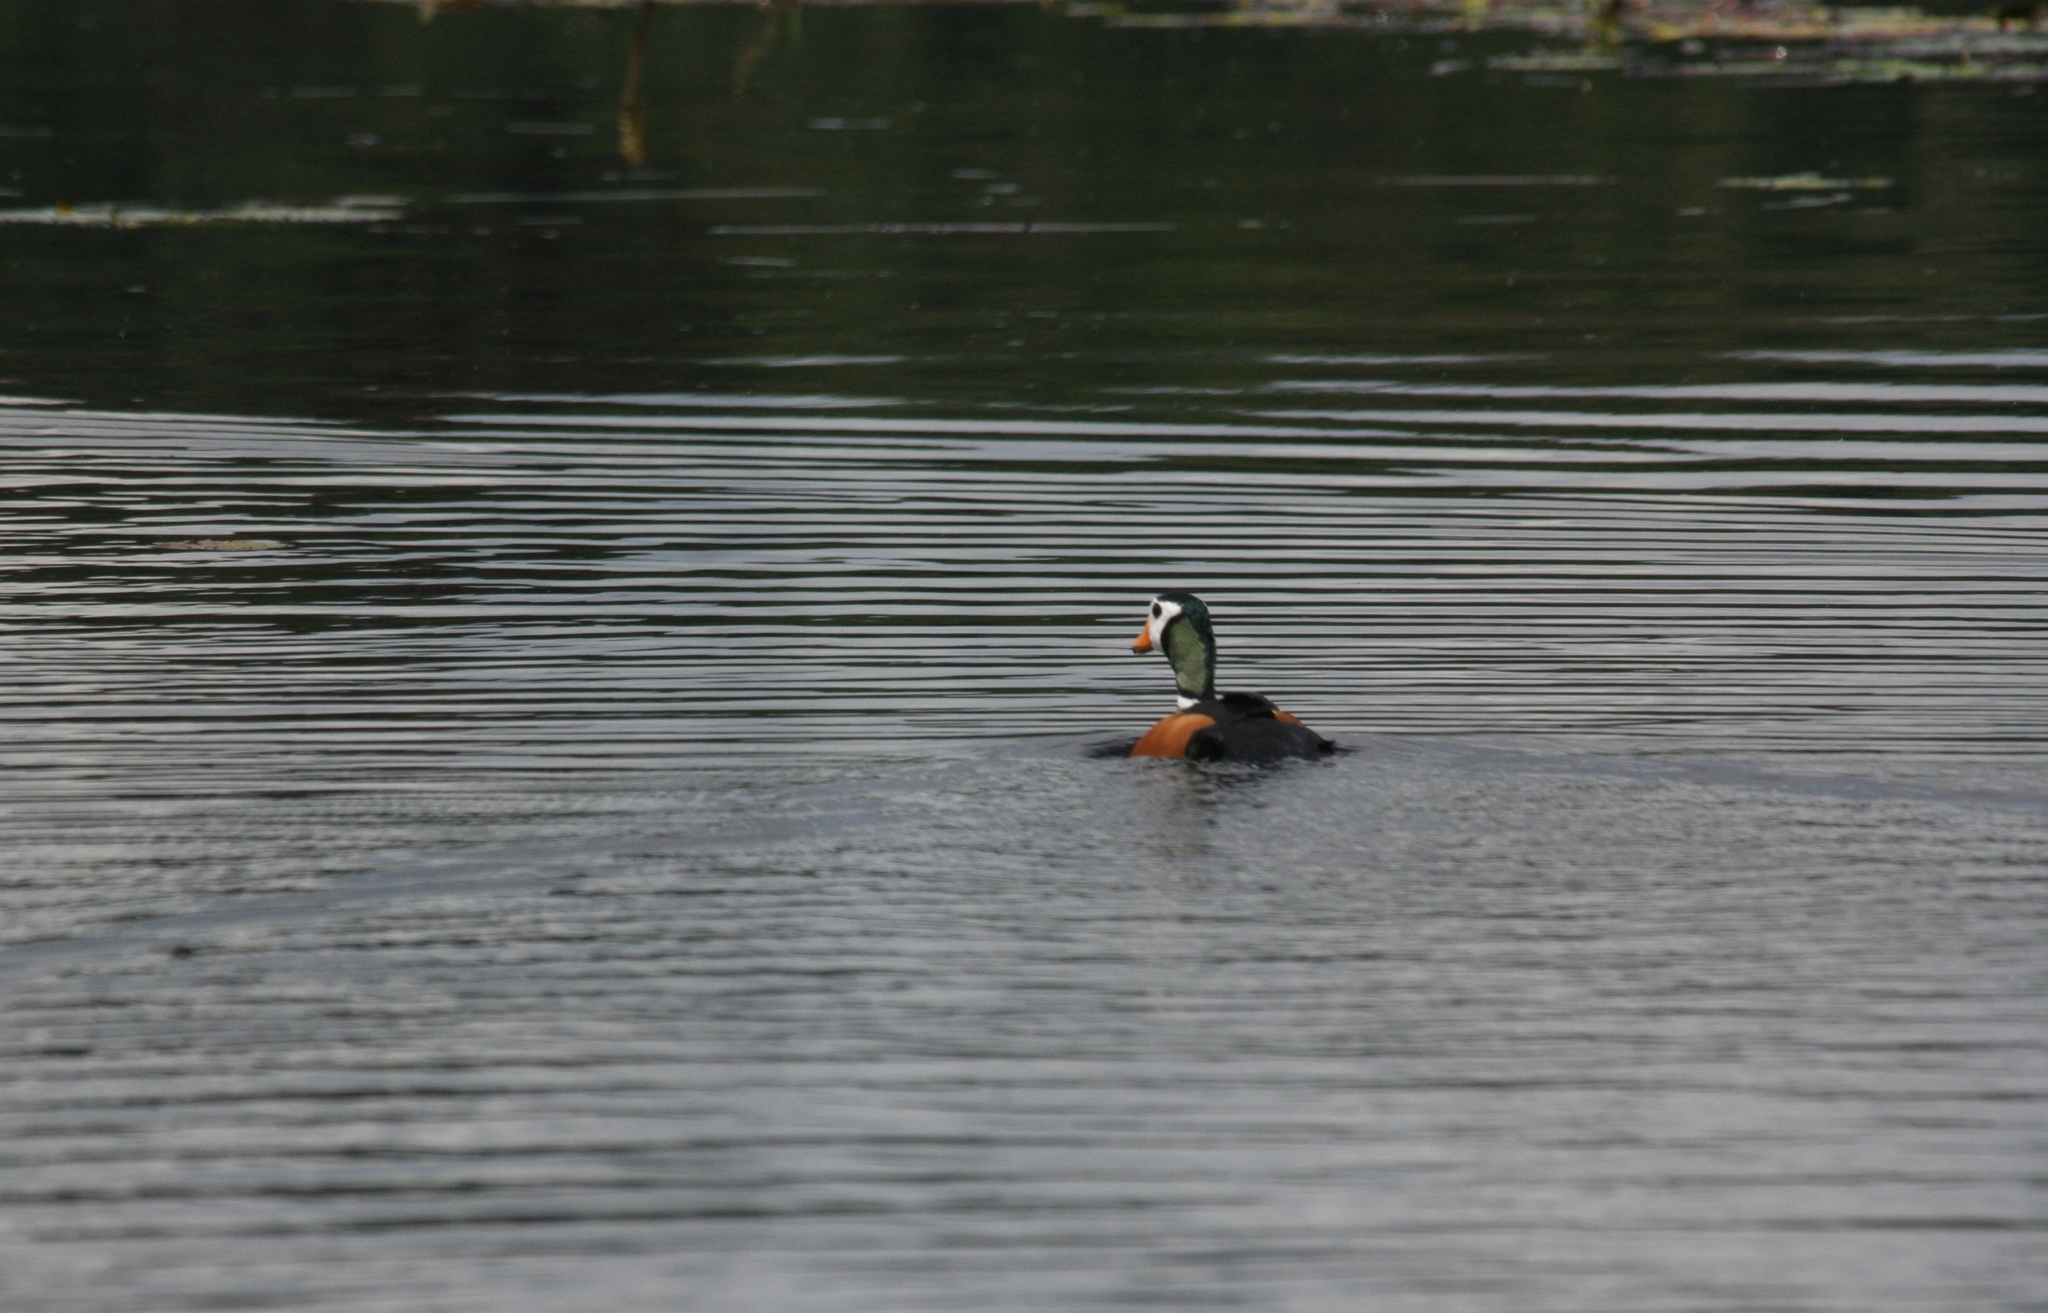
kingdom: Animalia
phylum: Chordata
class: Aves
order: Anseriformes
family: Anatidae
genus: Nettapus
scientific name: Nettapus auritus
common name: African pygmy-goose
